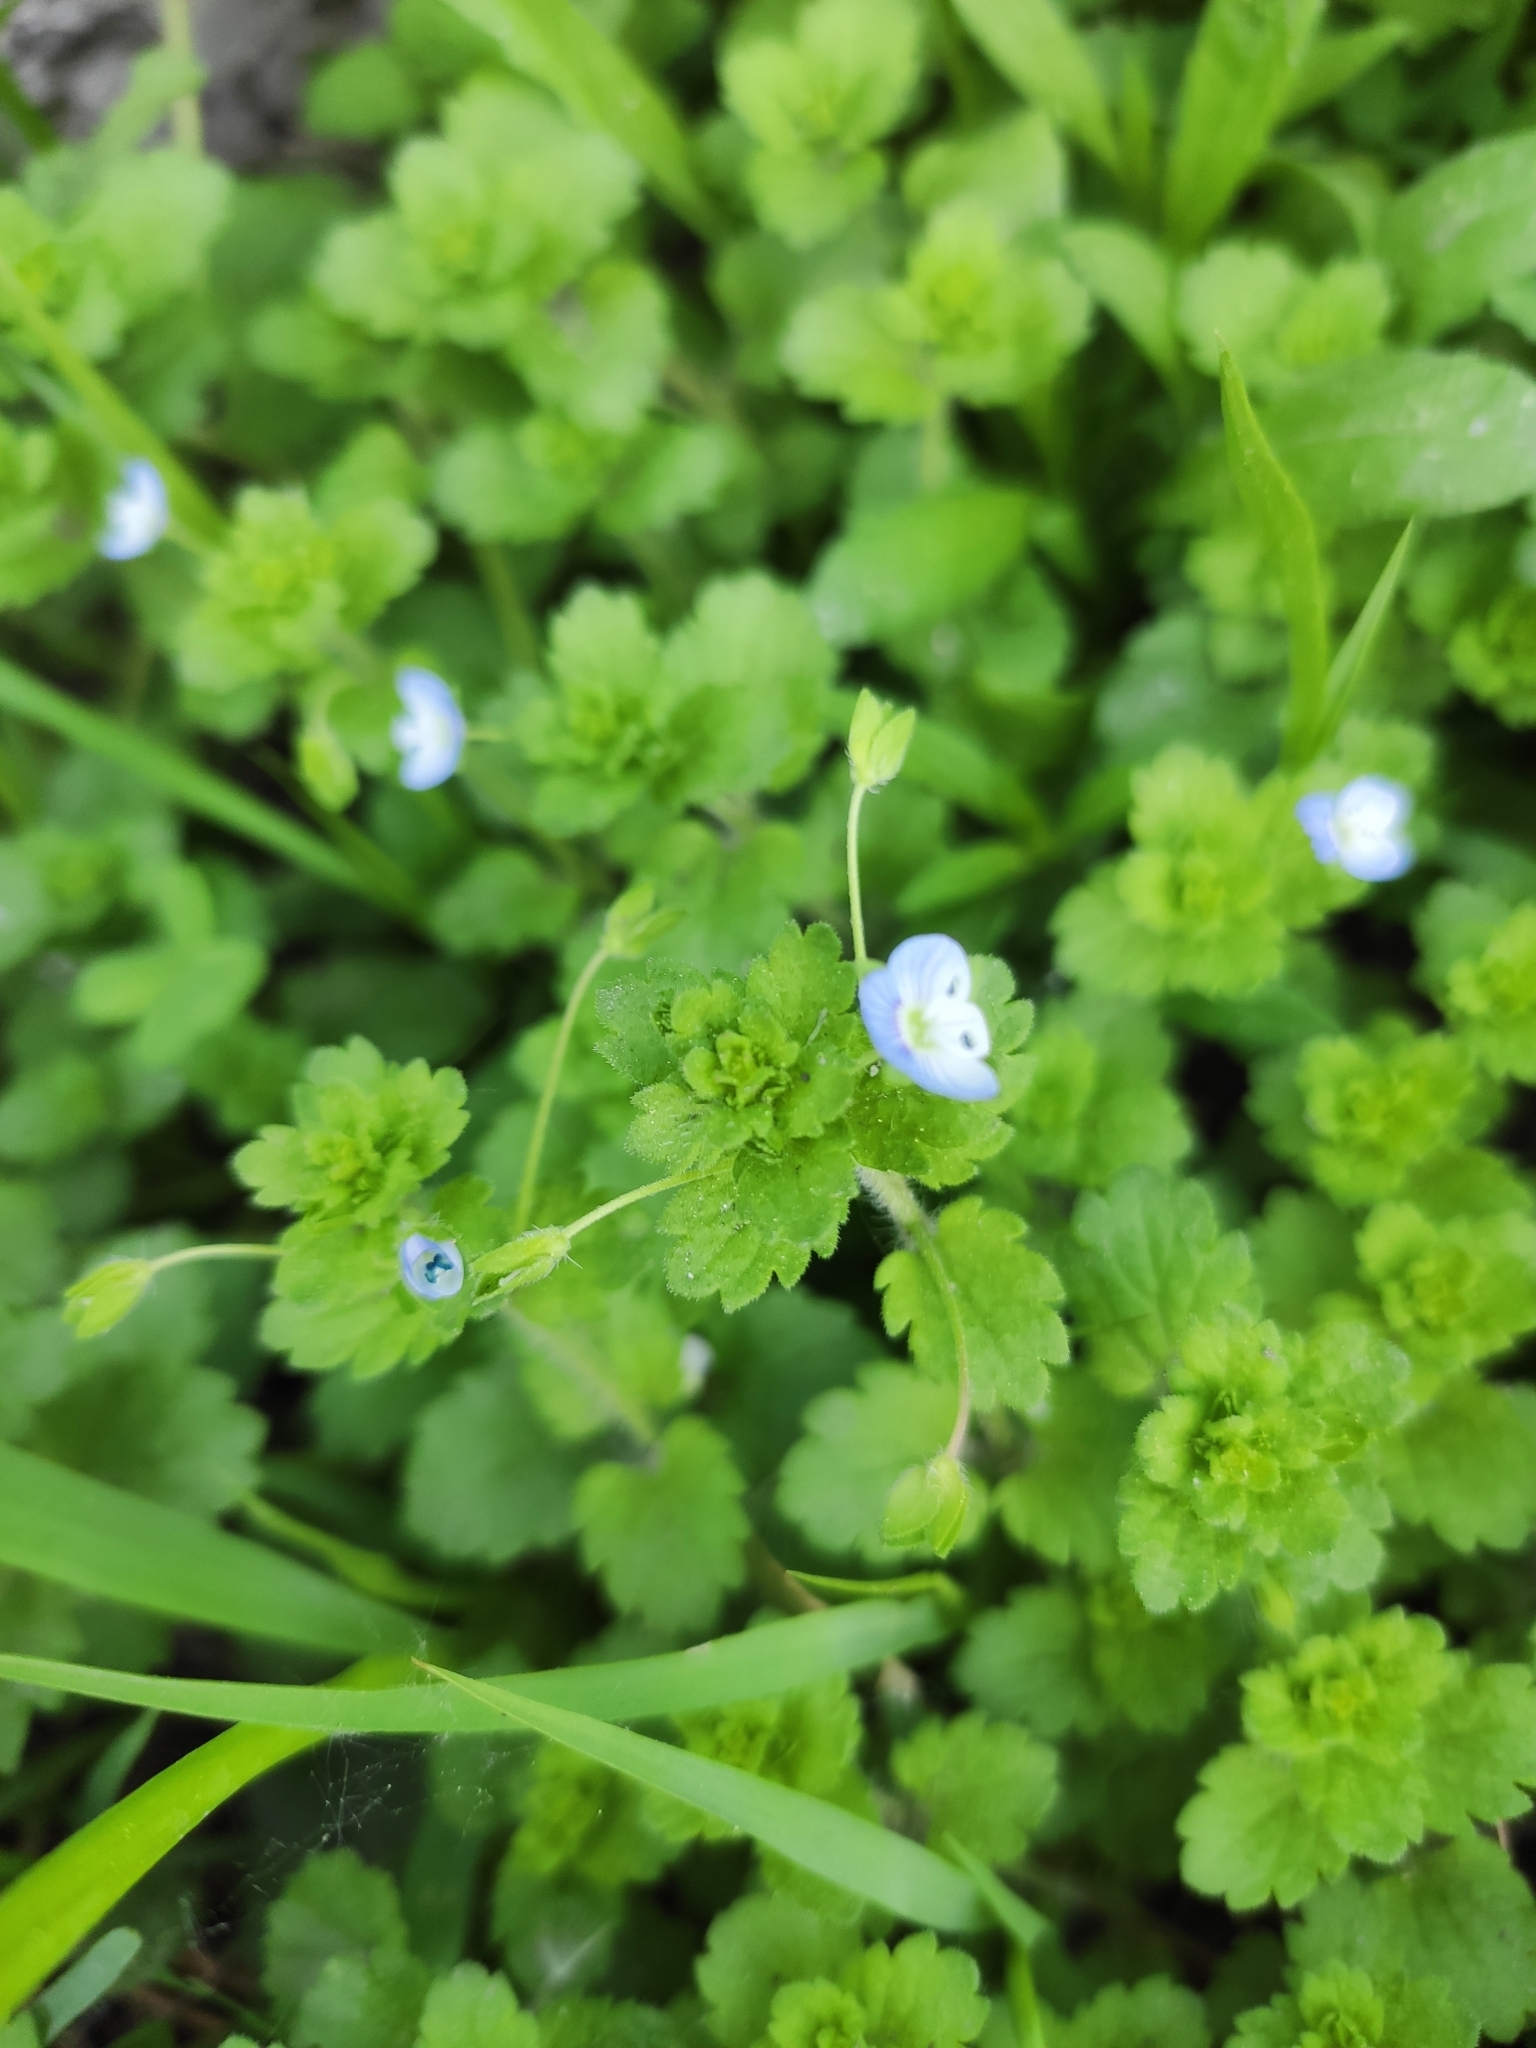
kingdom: Plantae
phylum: Tracheophyta
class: Magnoliopsida
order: Lamiales
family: Plantaginaceae
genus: Veronica
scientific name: Veronica persica
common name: Common field-speedwell
